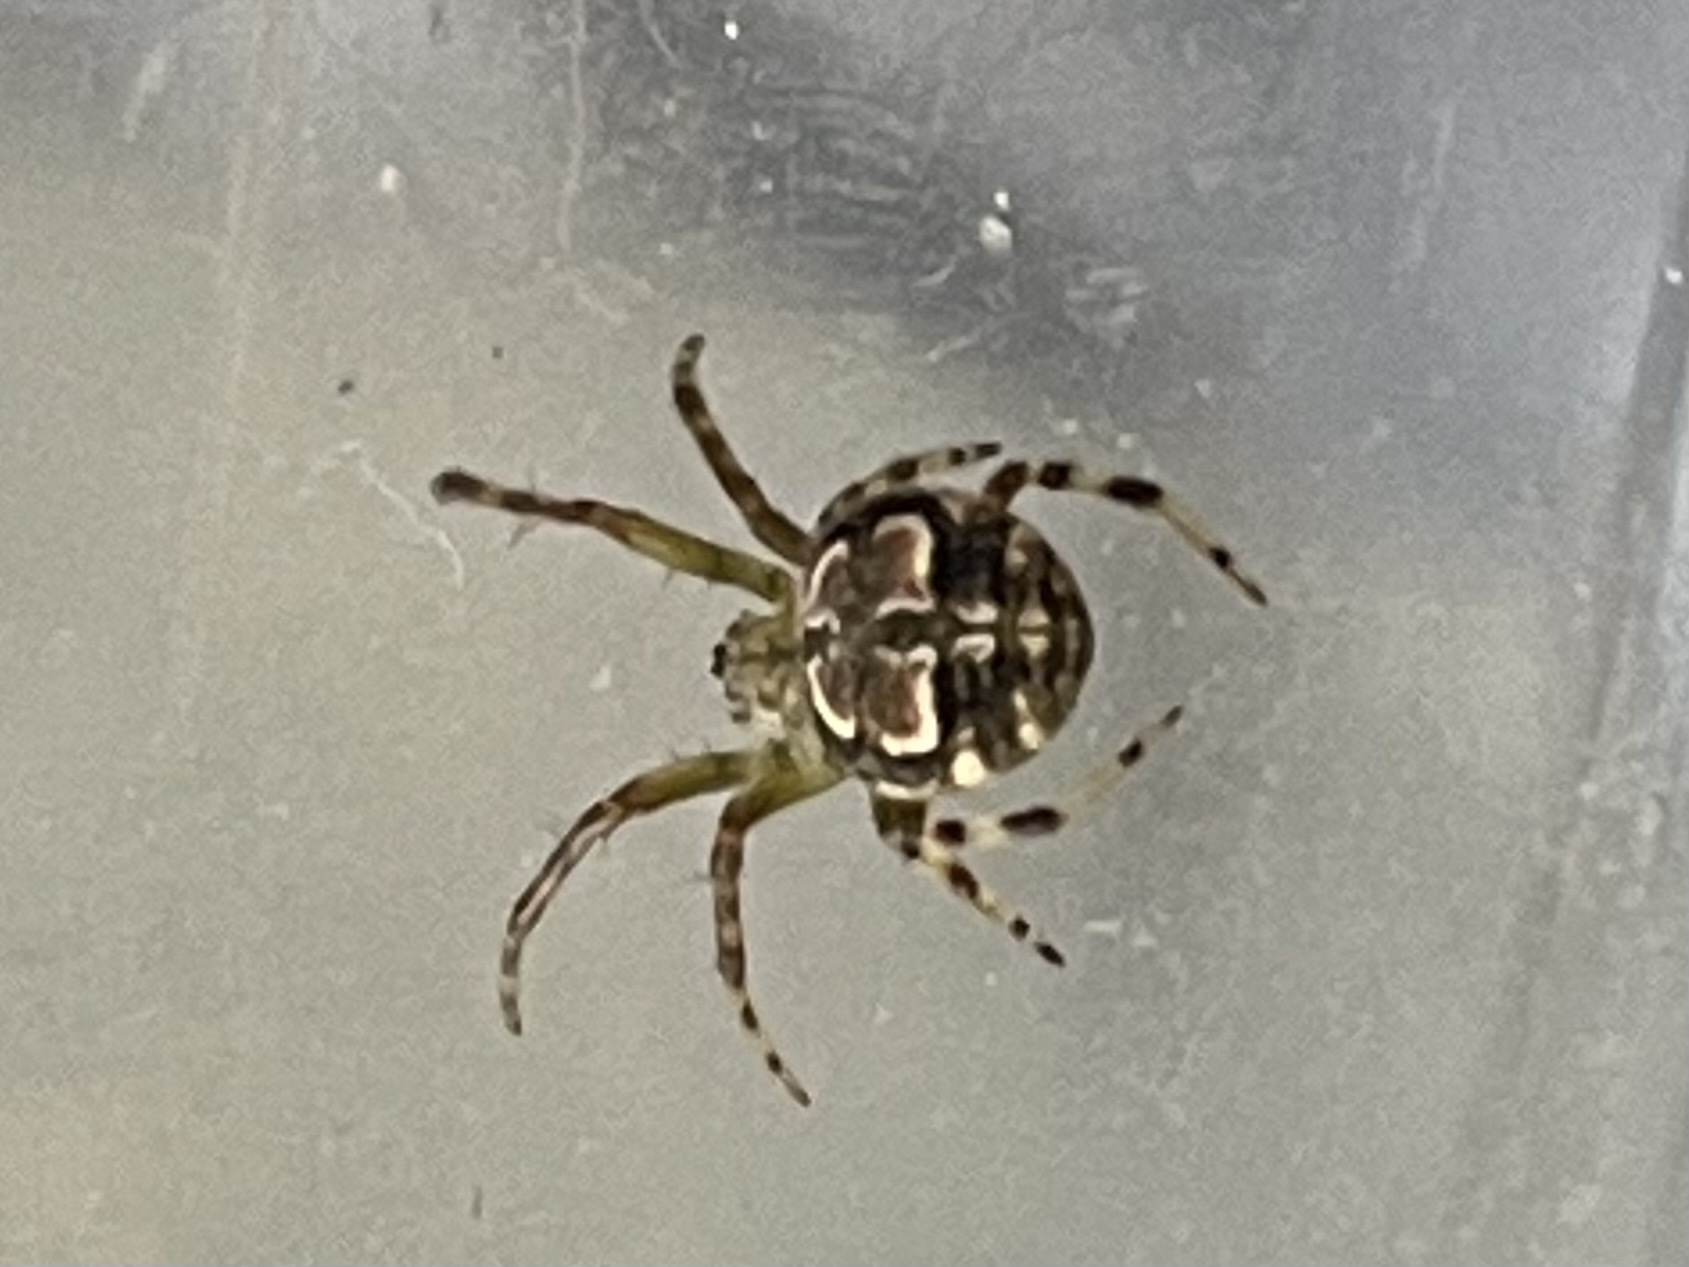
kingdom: Animalia
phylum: Arthropoda
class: Arachnida
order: Araneae
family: Araneidae
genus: Araneus
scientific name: Araneus pegnia
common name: Orb weavers
